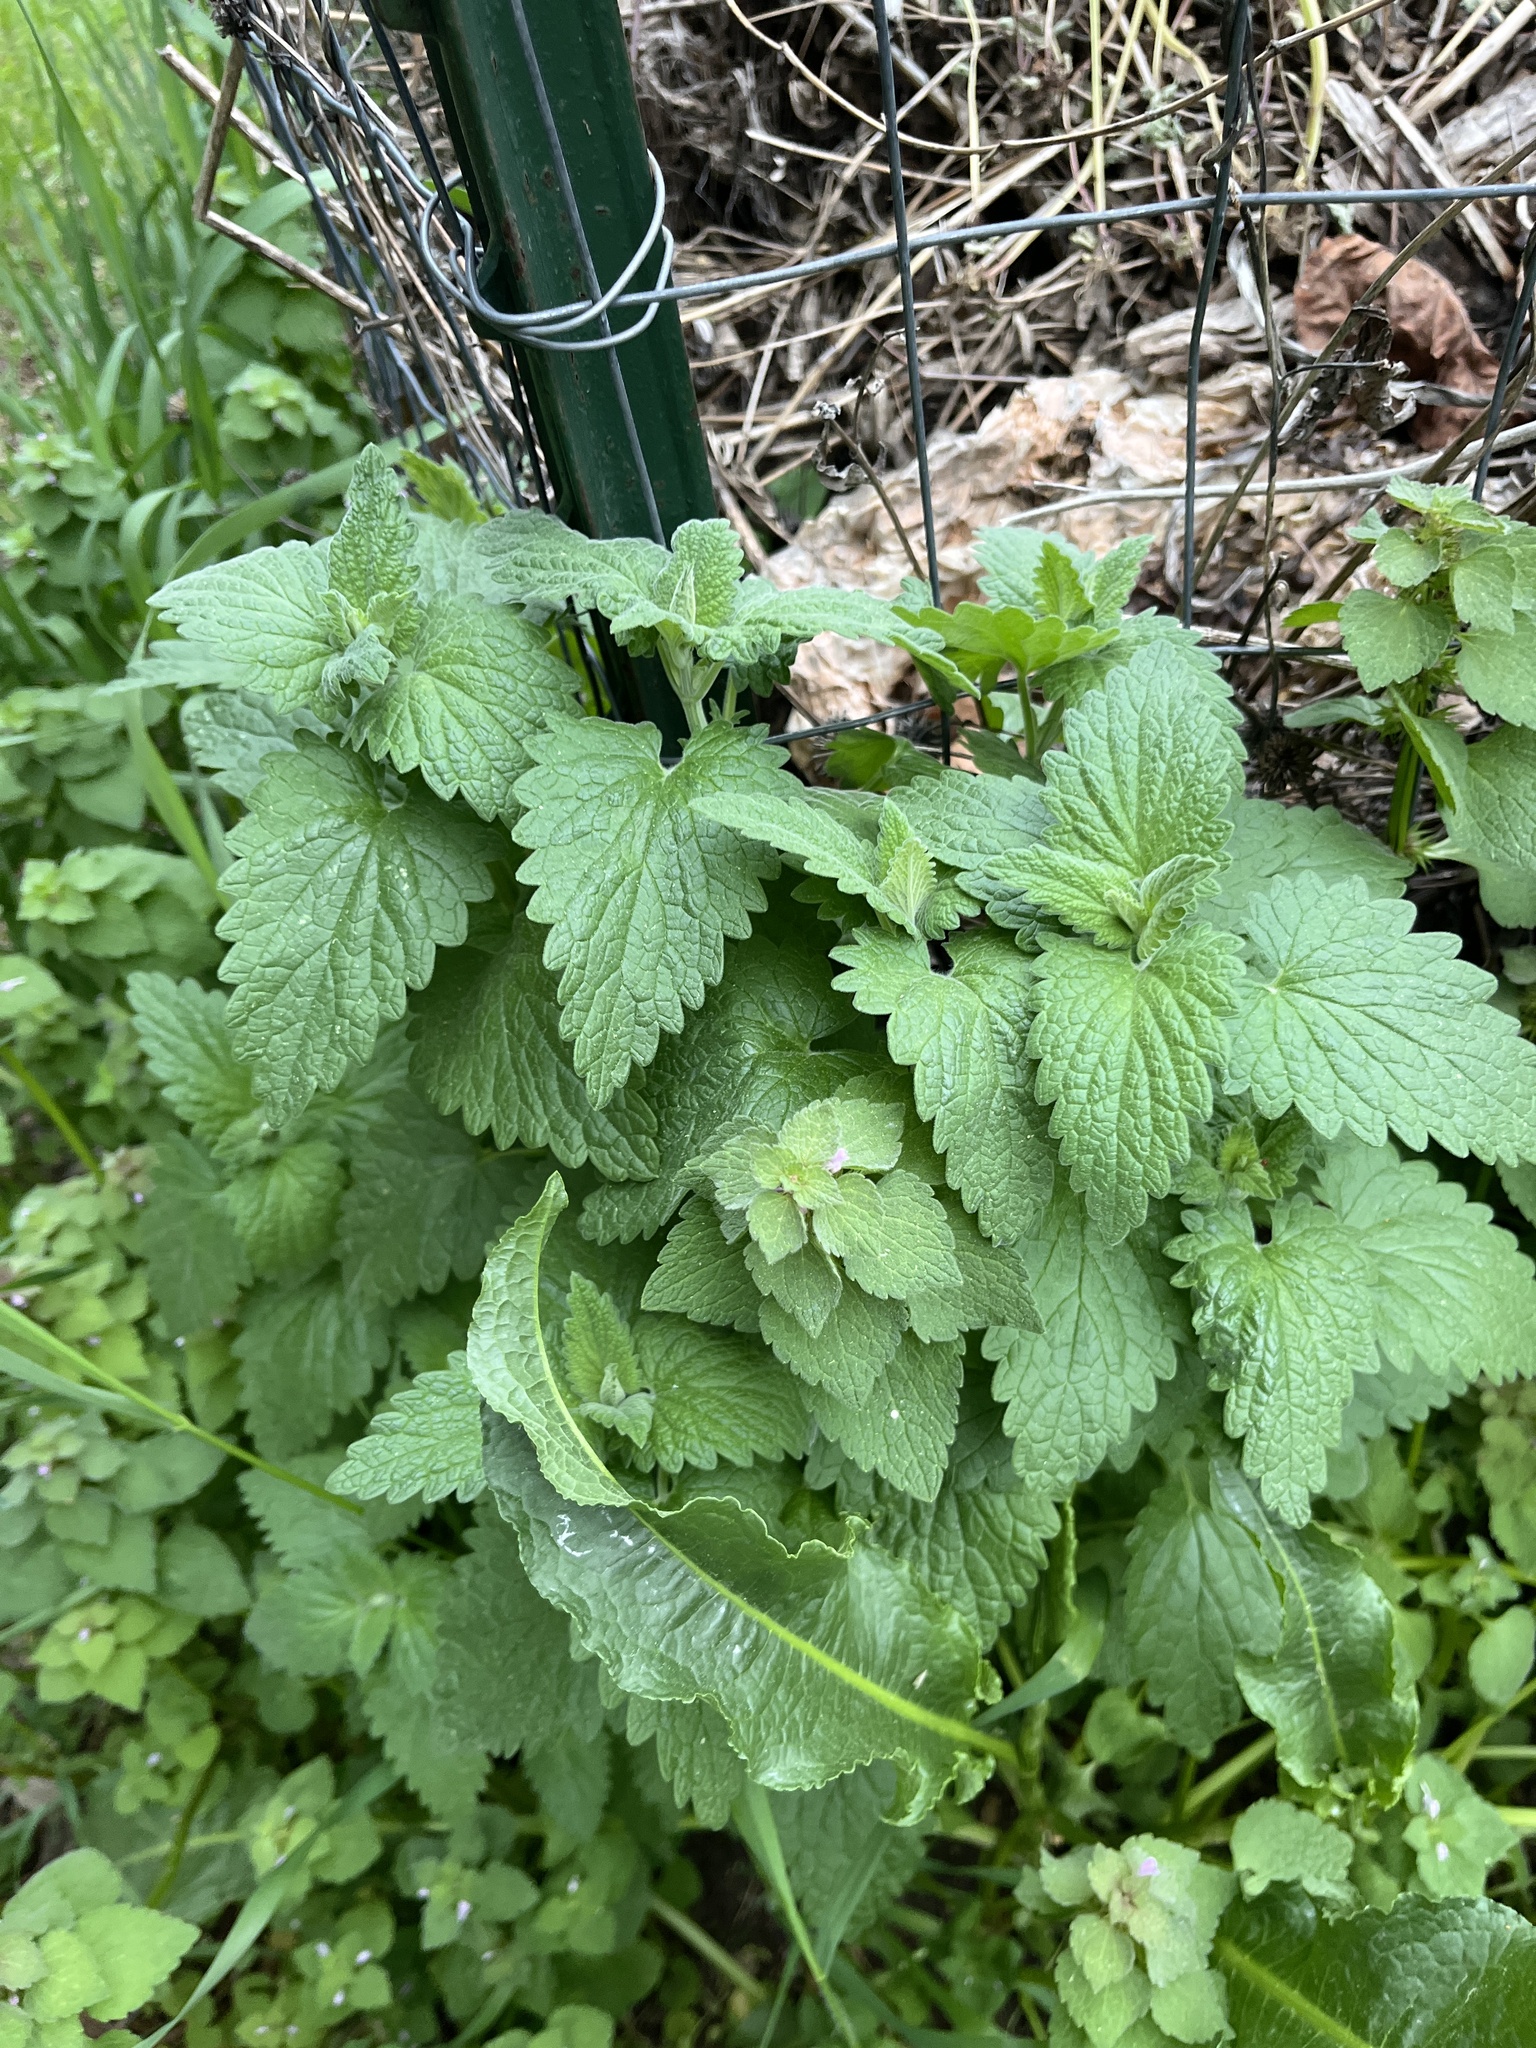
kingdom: Plantae
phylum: Tracheophyta
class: Magnoliopsida
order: Lamiales
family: Lamiaceae
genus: Nepeta
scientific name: Nepeta cataria
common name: Catnip
